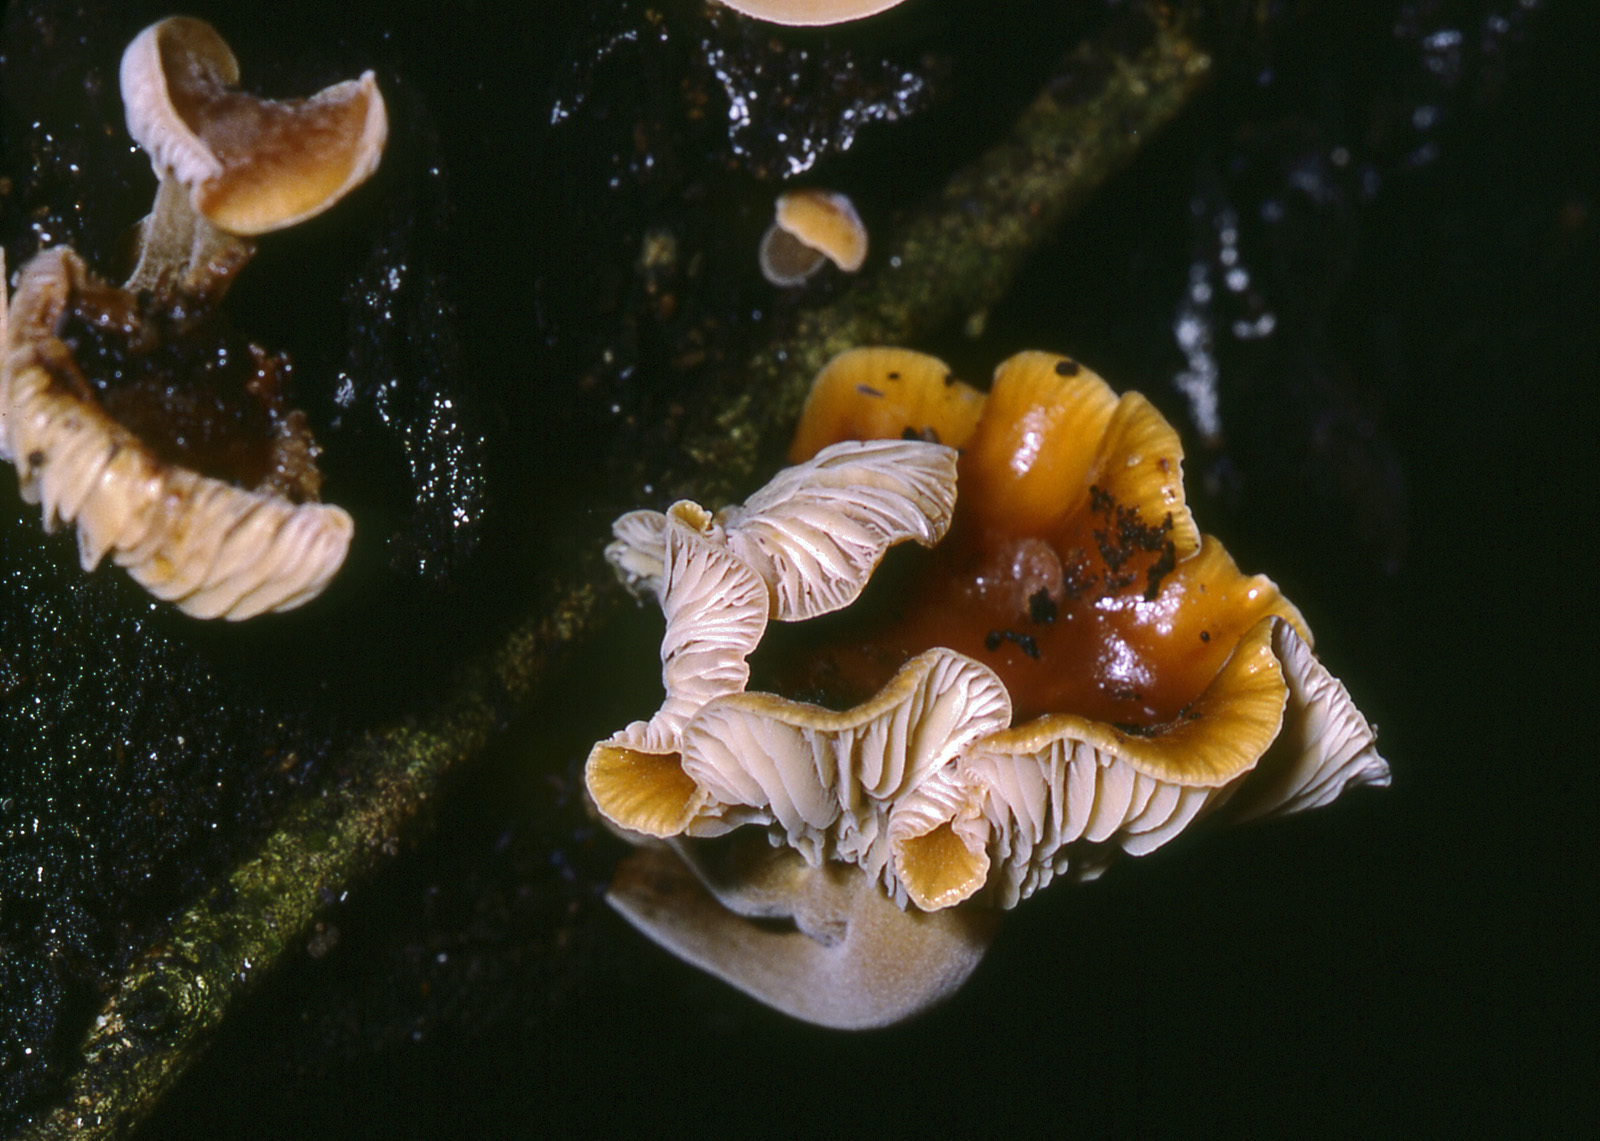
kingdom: Fungi
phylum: Basidiomycota
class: Agaricomycetes
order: Agaricales
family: Physalacriaceae
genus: Flammulina
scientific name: Flammulina velutipes
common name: Velvet shank
